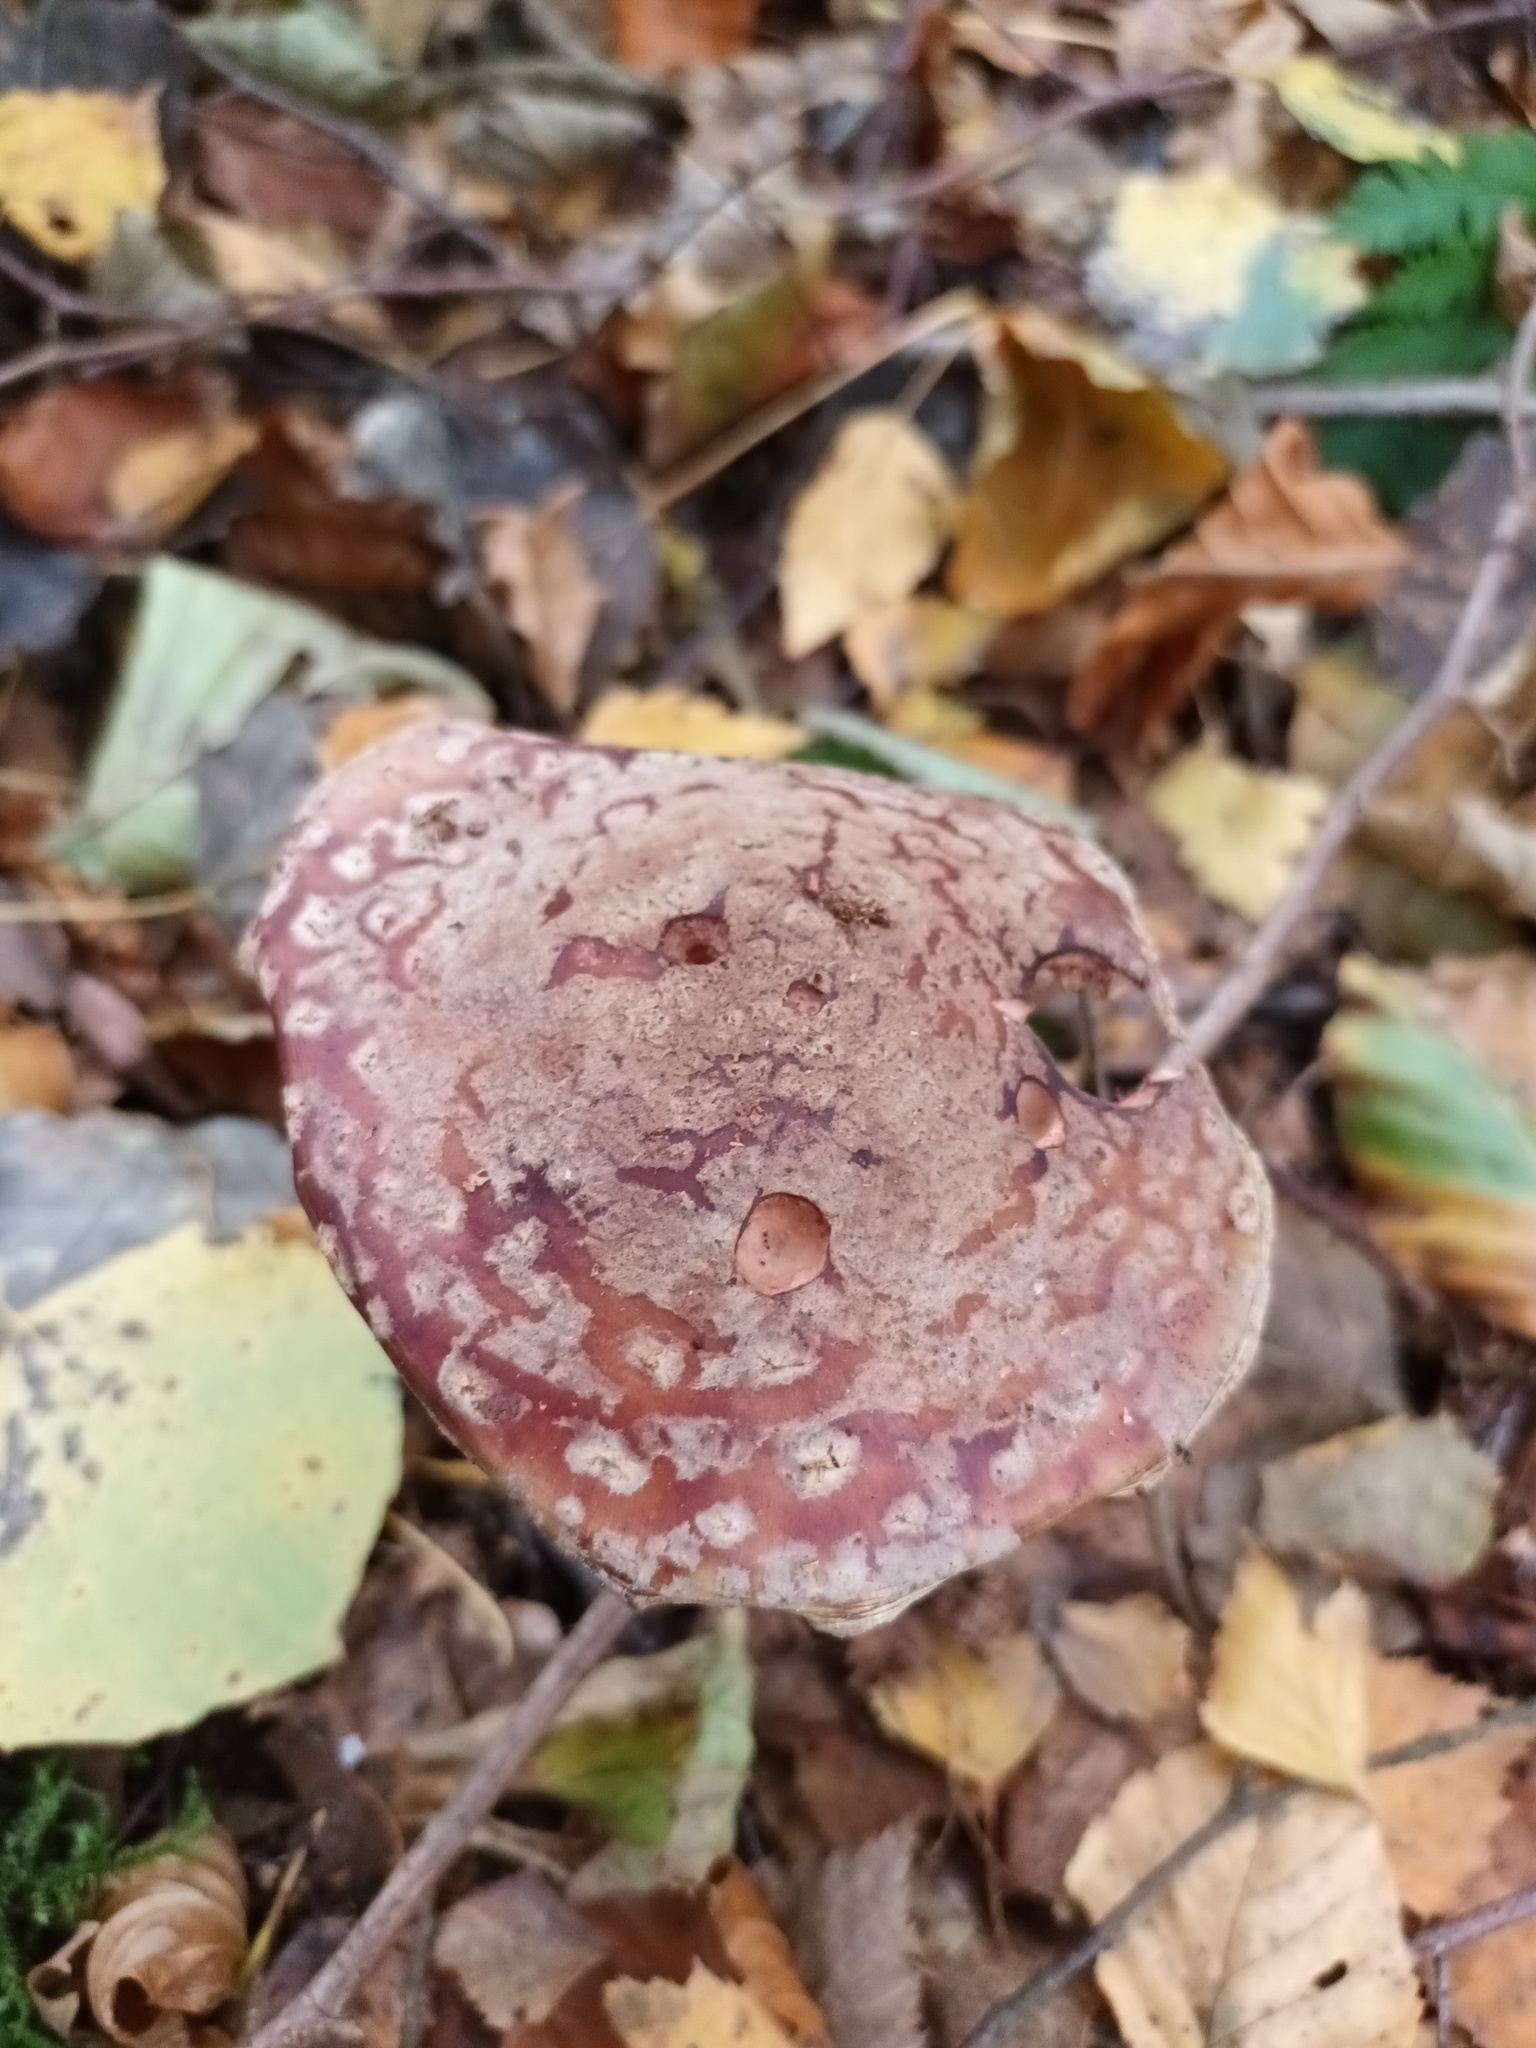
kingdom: Fungi
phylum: Basidiomycota
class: Agaricomycetes
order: Agaricales
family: Amanitaceae
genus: Amanita
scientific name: Amanita rubescens
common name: Blusher
